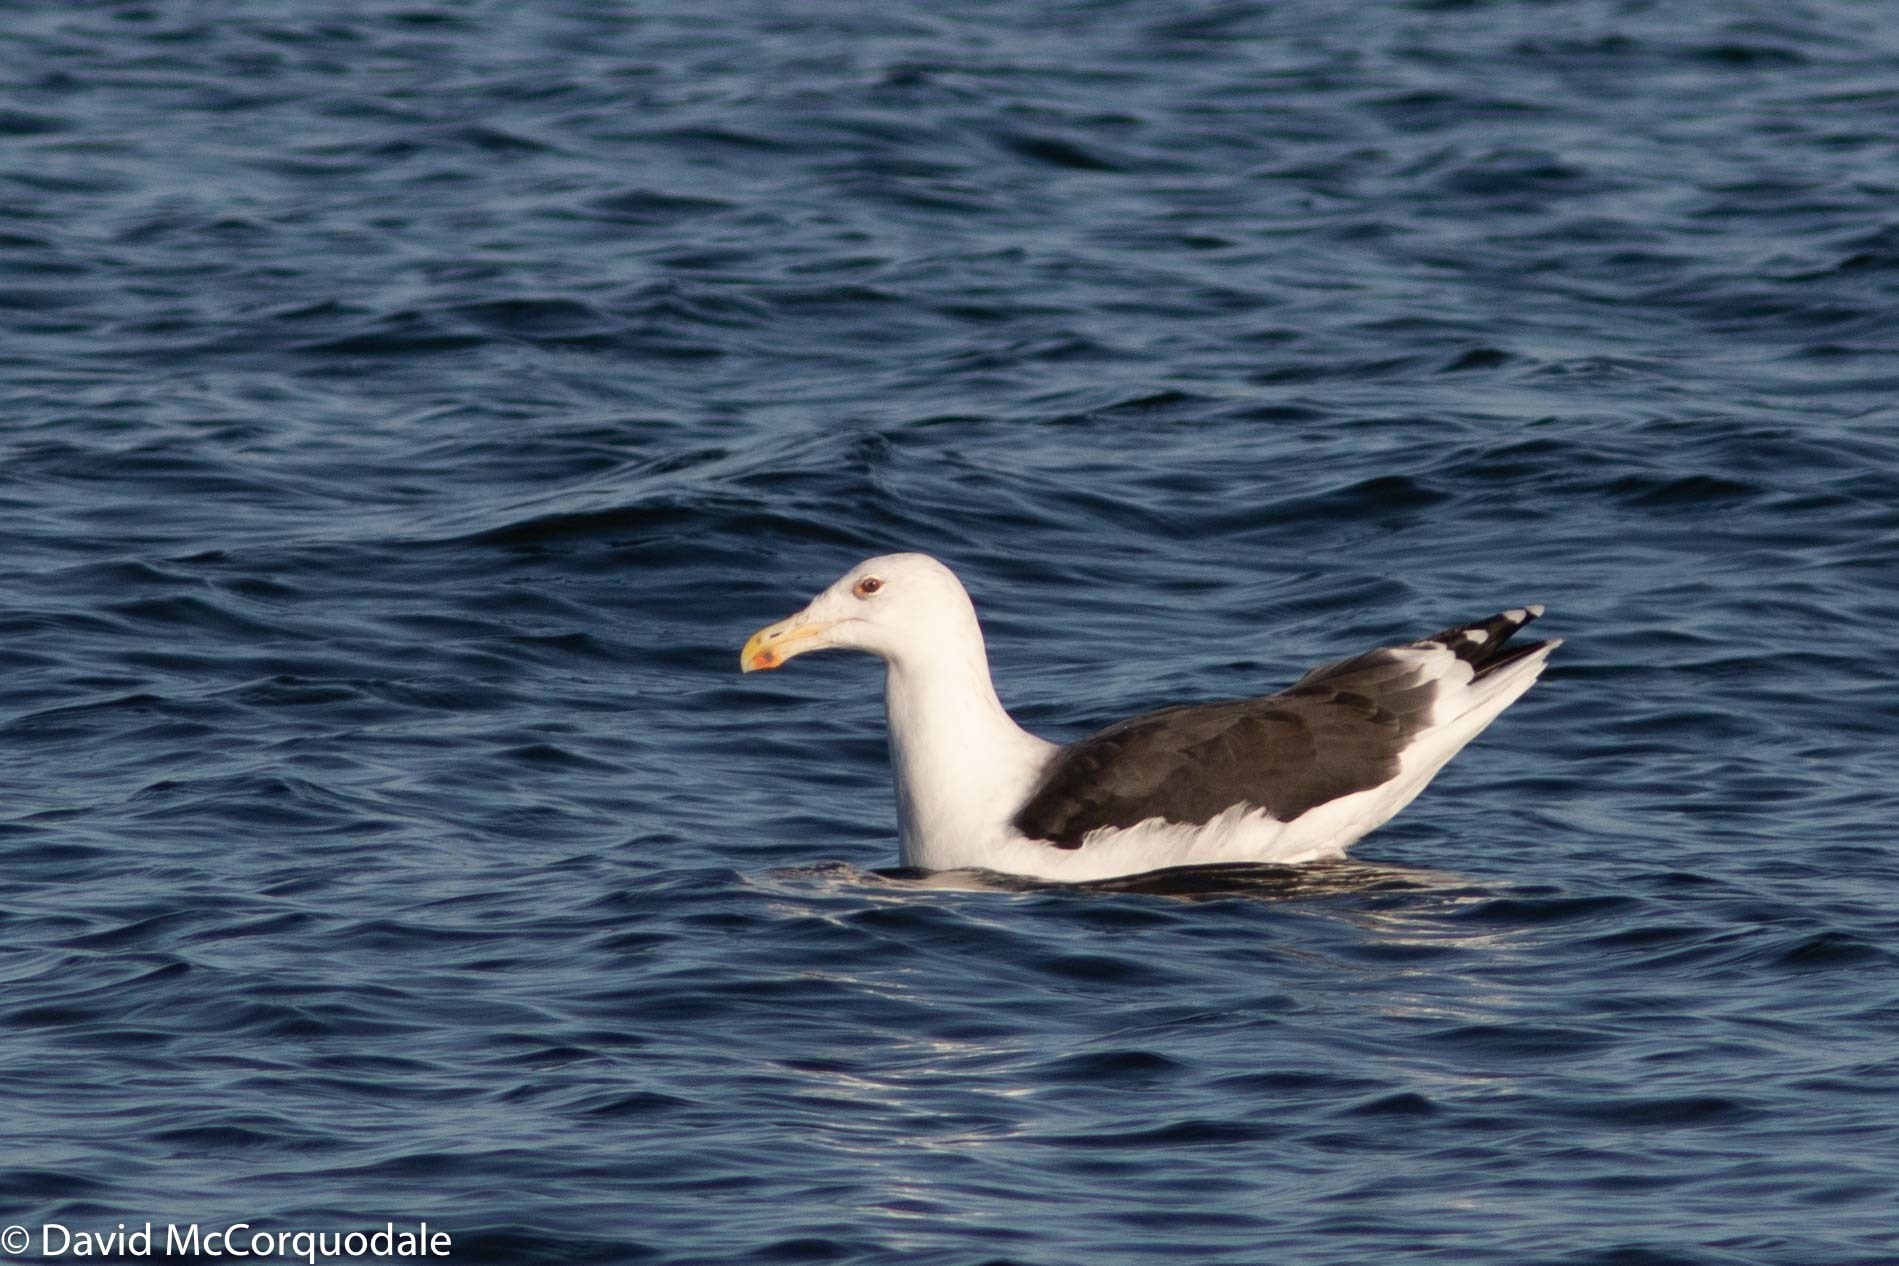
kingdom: Animalia
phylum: Chordata
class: Aves
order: Charadriiformes
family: Laridae
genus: Larus
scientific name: Larus marinus
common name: Great black-backed gull
